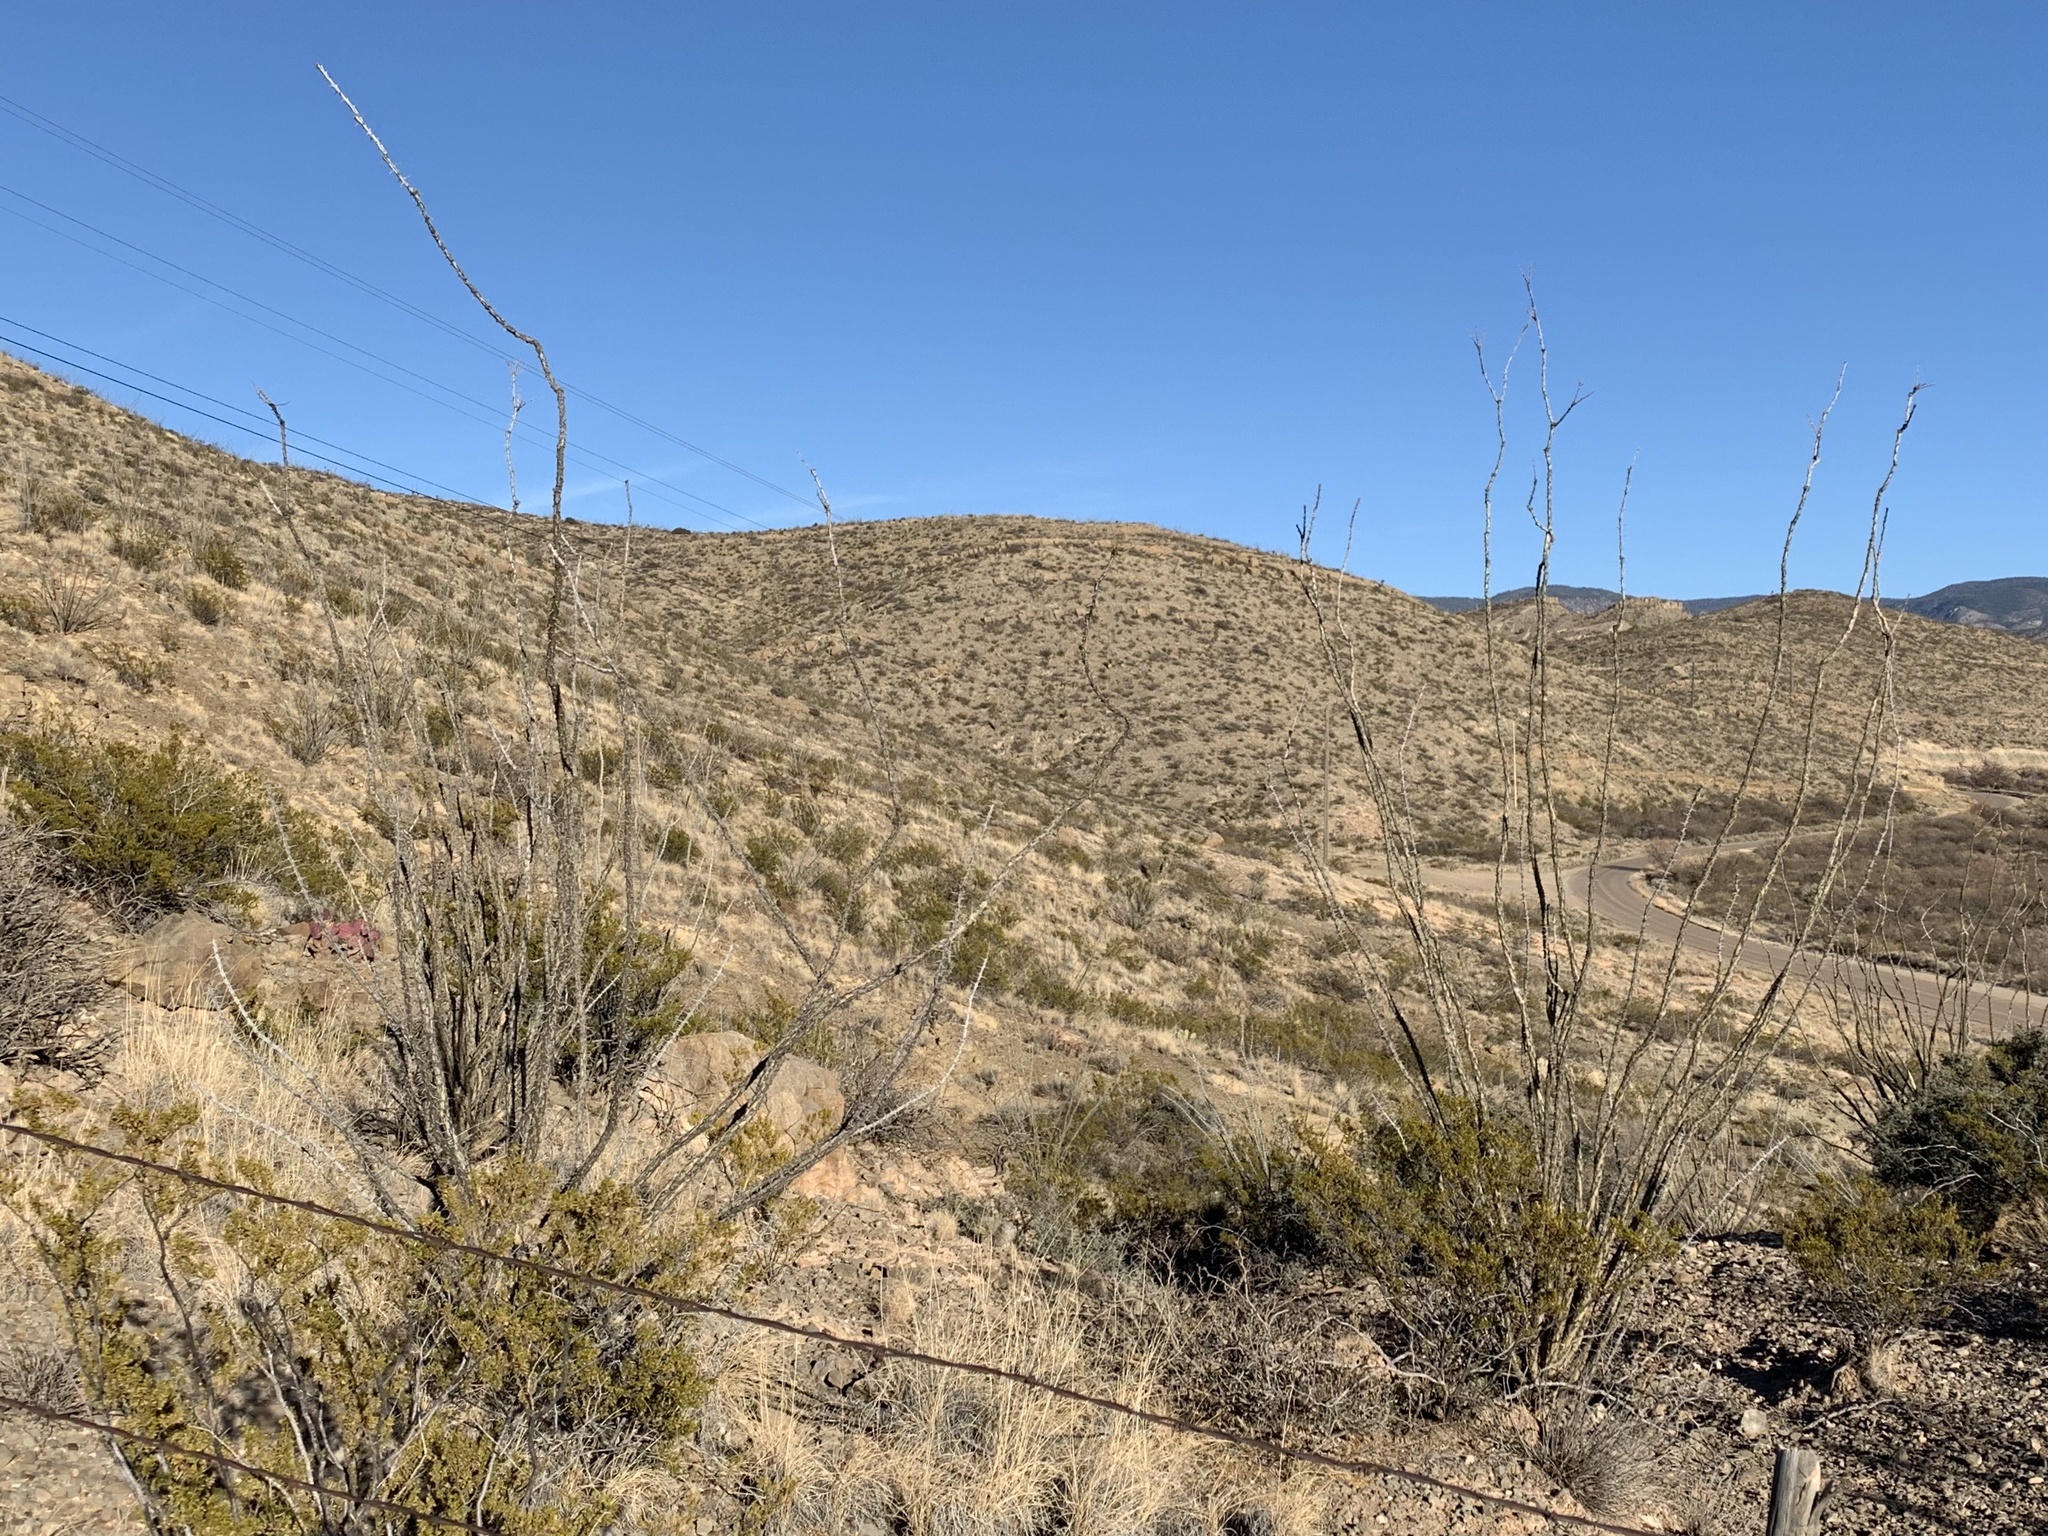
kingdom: Plantae
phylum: Tracheophyta
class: Magnoliopsida
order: Ericales
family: Fouquieriaceae
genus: Fouquieria
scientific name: Fouquieria splendens
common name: Vine-cactus
